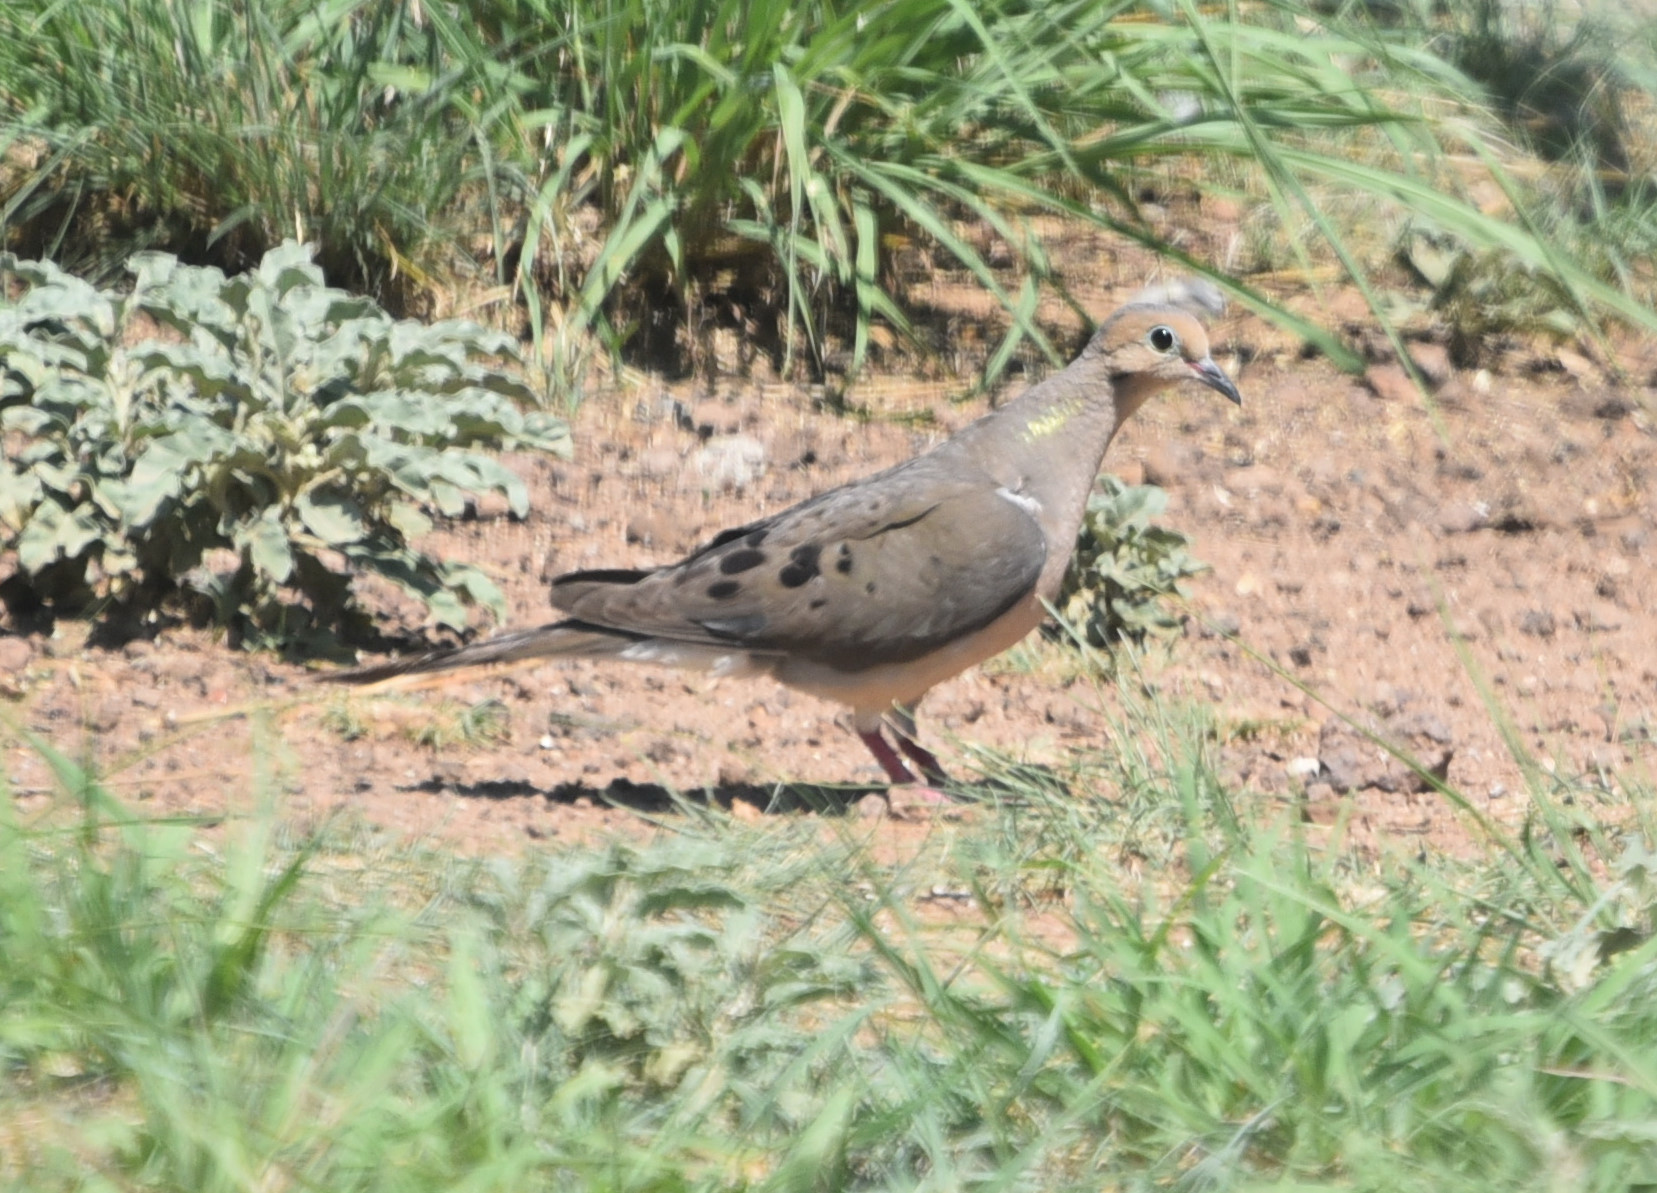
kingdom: Animalia
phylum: Chordata
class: Aves
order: Columbiformes
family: Columbidae
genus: Zenaida
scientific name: Zenaida macroura
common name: Mourning dove
